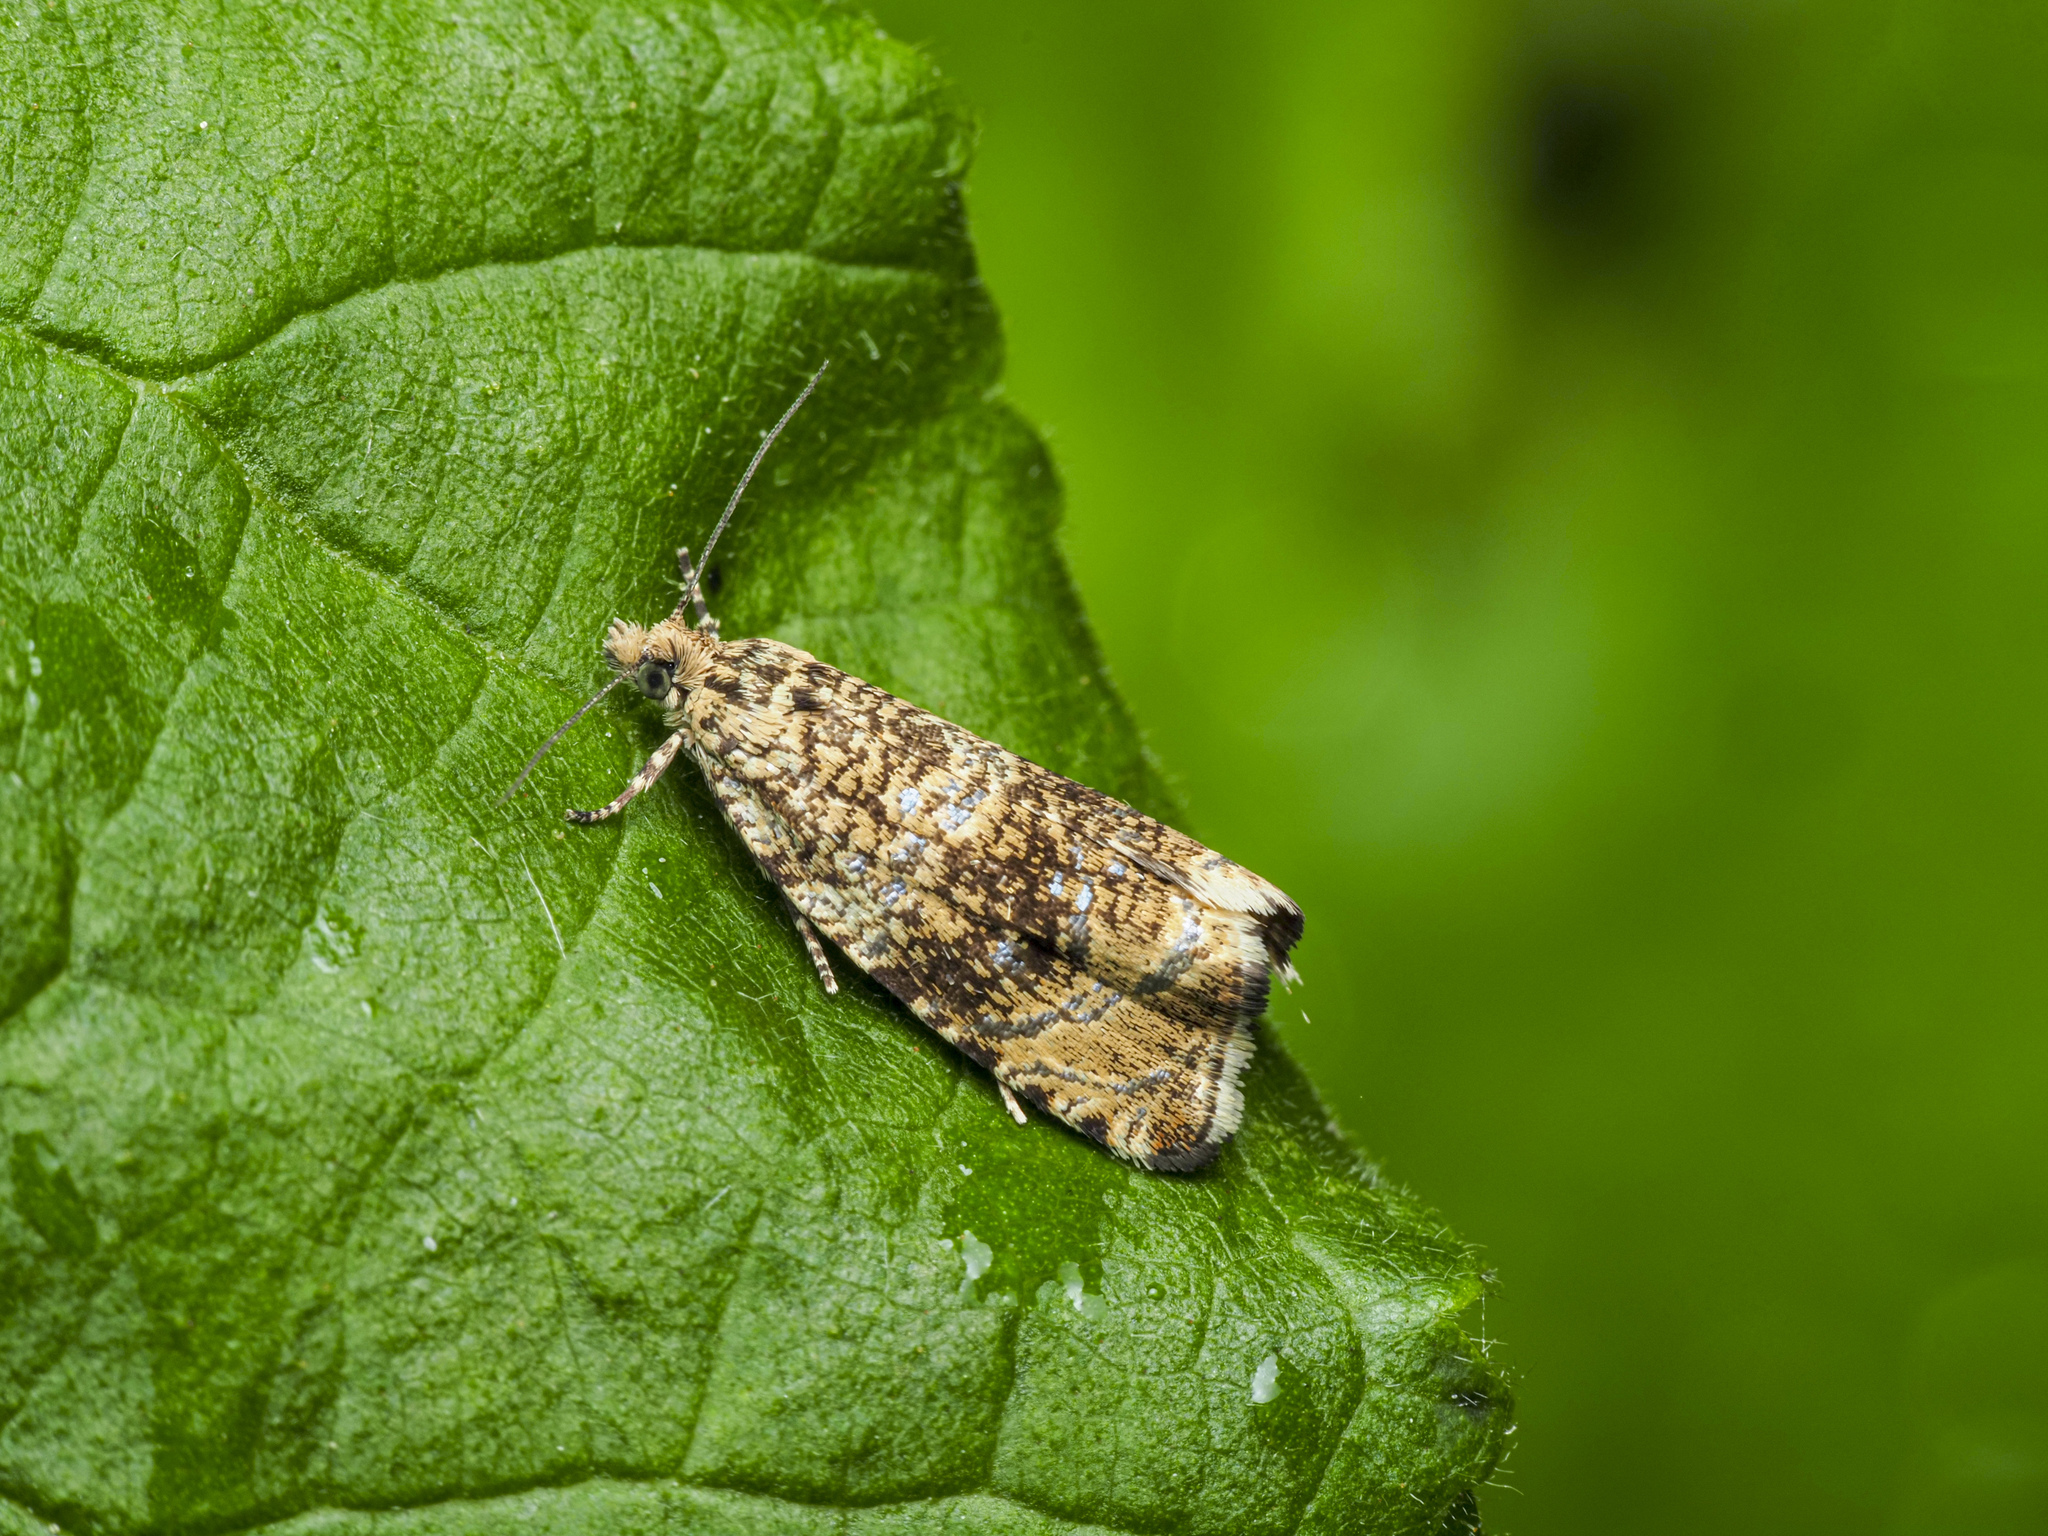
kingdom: Animalia
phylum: Arthropoda
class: Insecta
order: Lepidoptera
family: Tortricidae
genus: Syricoris
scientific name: Syricoris lacunana
